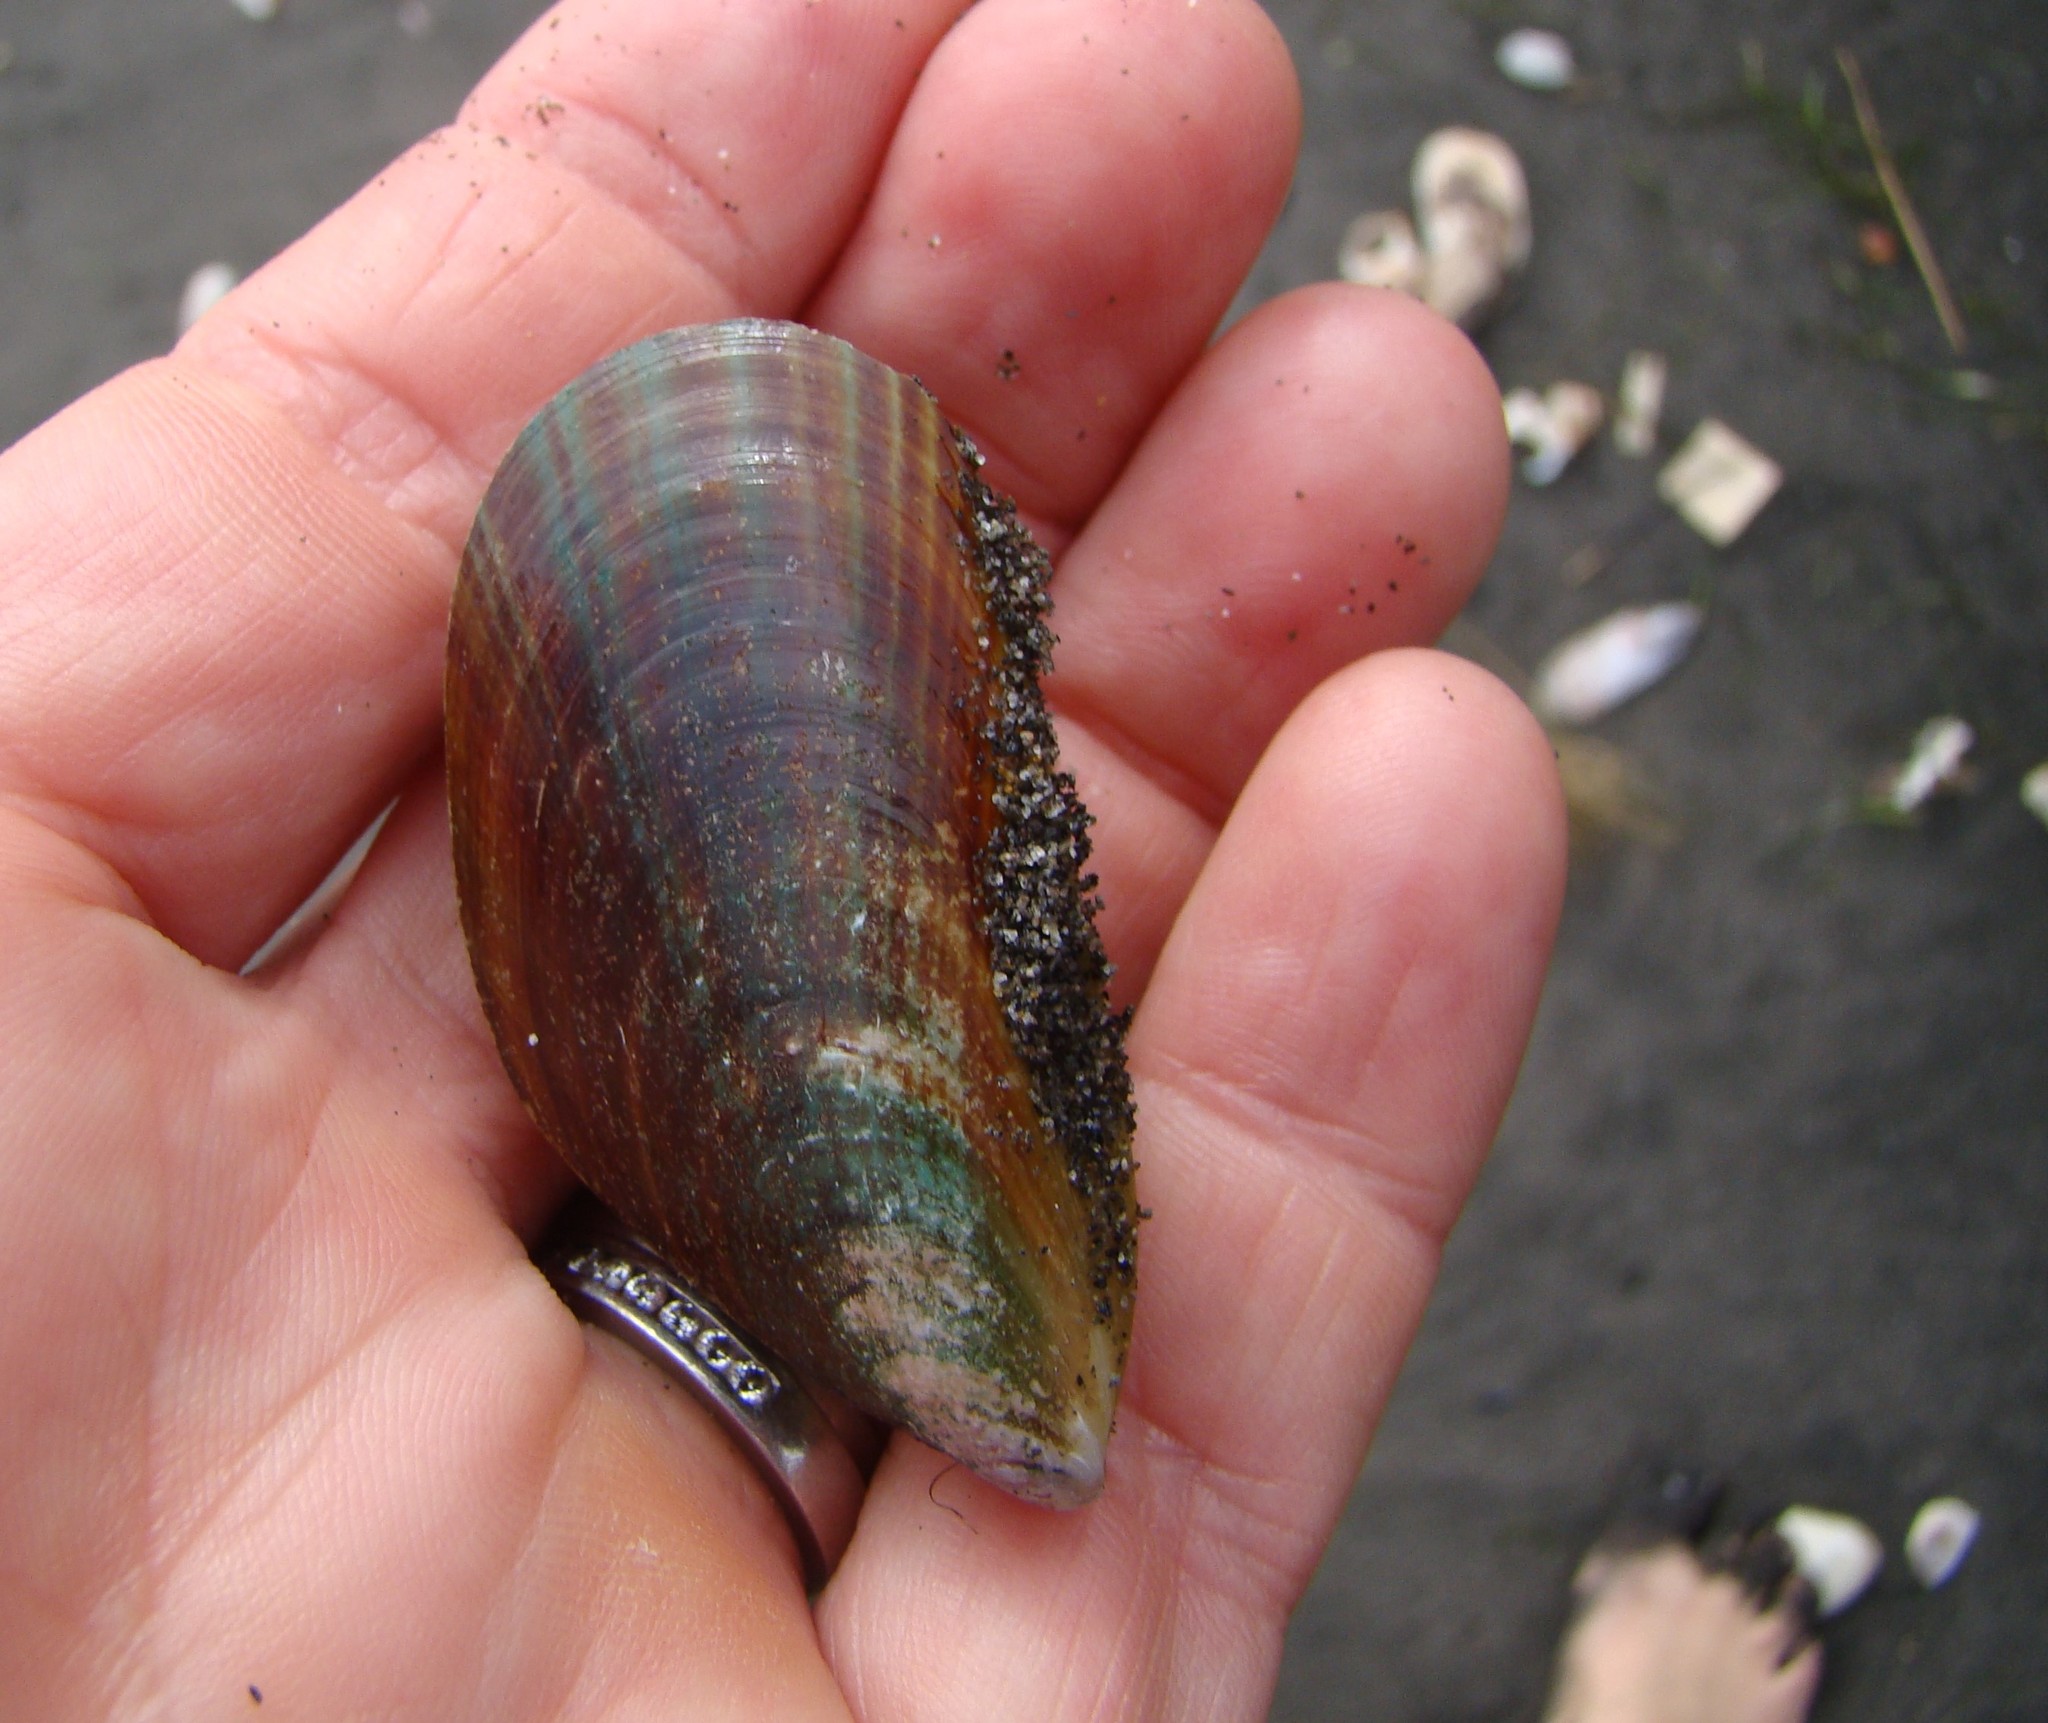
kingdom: Animalia
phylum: Mollusca
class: Bivalvia
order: Mytilida
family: Mytilidae
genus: Perna
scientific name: Perna canaliculus
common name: New zealand greenshelltm
